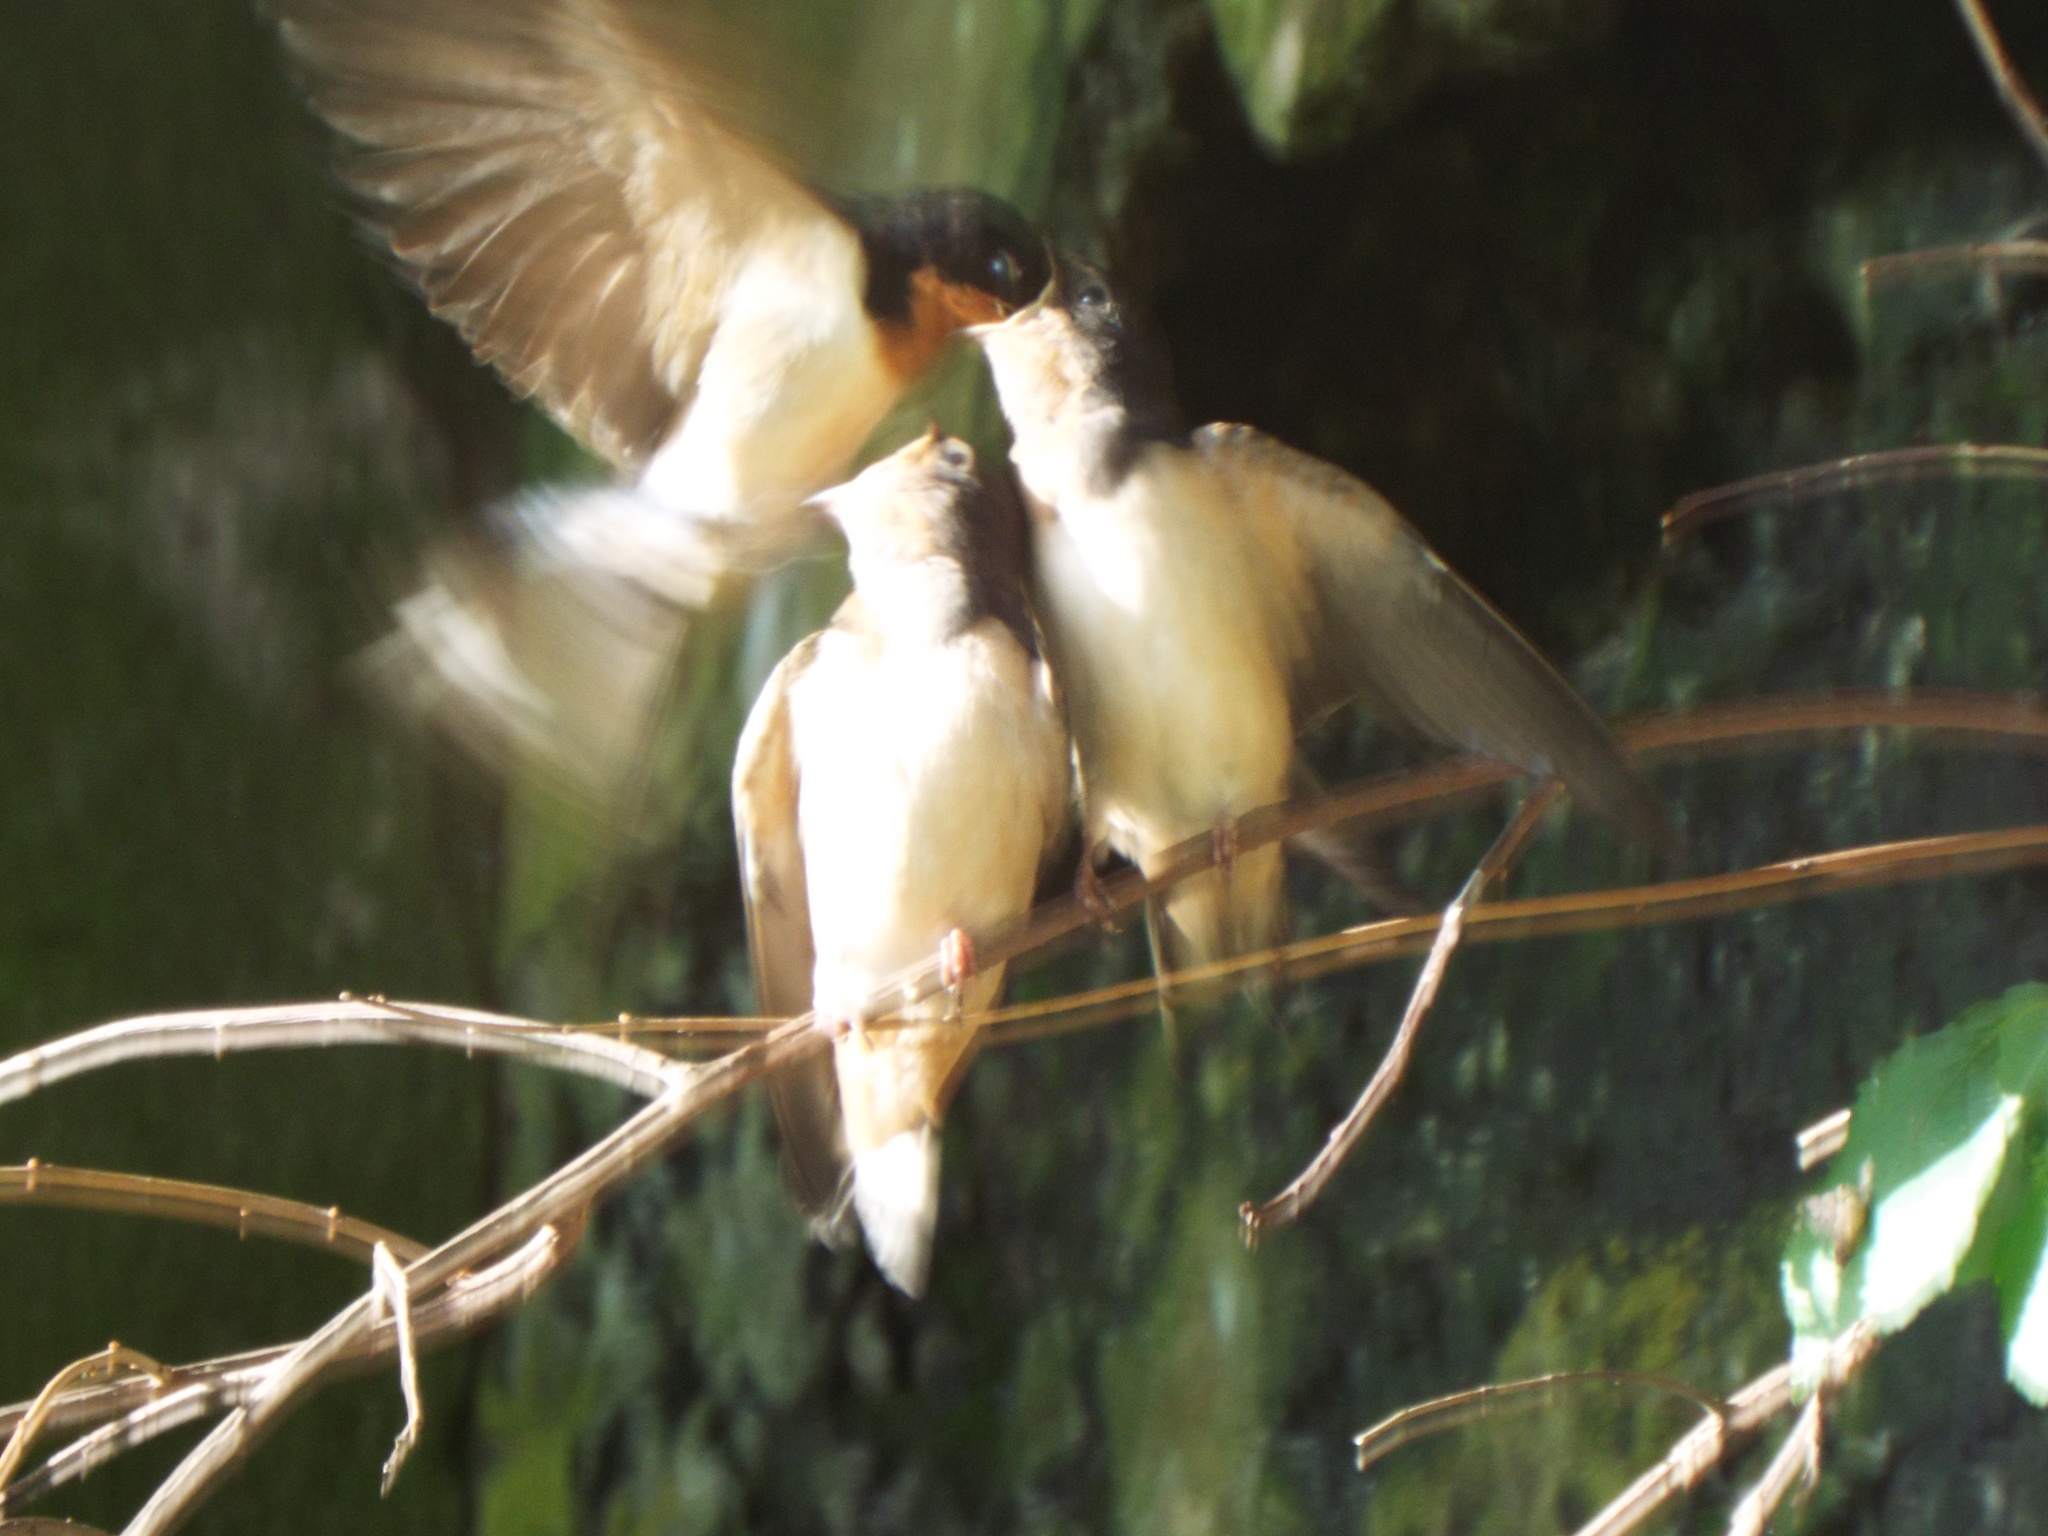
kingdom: Animalia
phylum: Chordata
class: Aves
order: Passeriformes
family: Hirundinidae
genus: Hirundo
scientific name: Hirundo rustica
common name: Barn swallow
